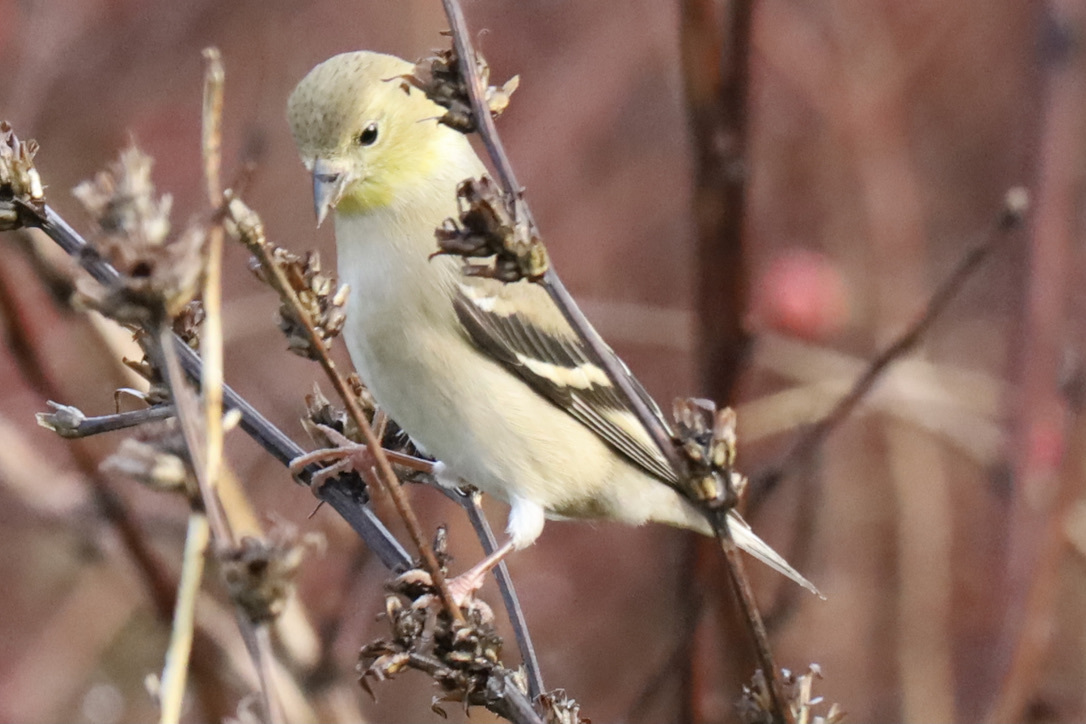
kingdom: Animalia
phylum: Chordata
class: Aves
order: Passeriformes
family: Fringillidae
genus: Spinus
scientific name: Spinus tristis
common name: American goldfinch
